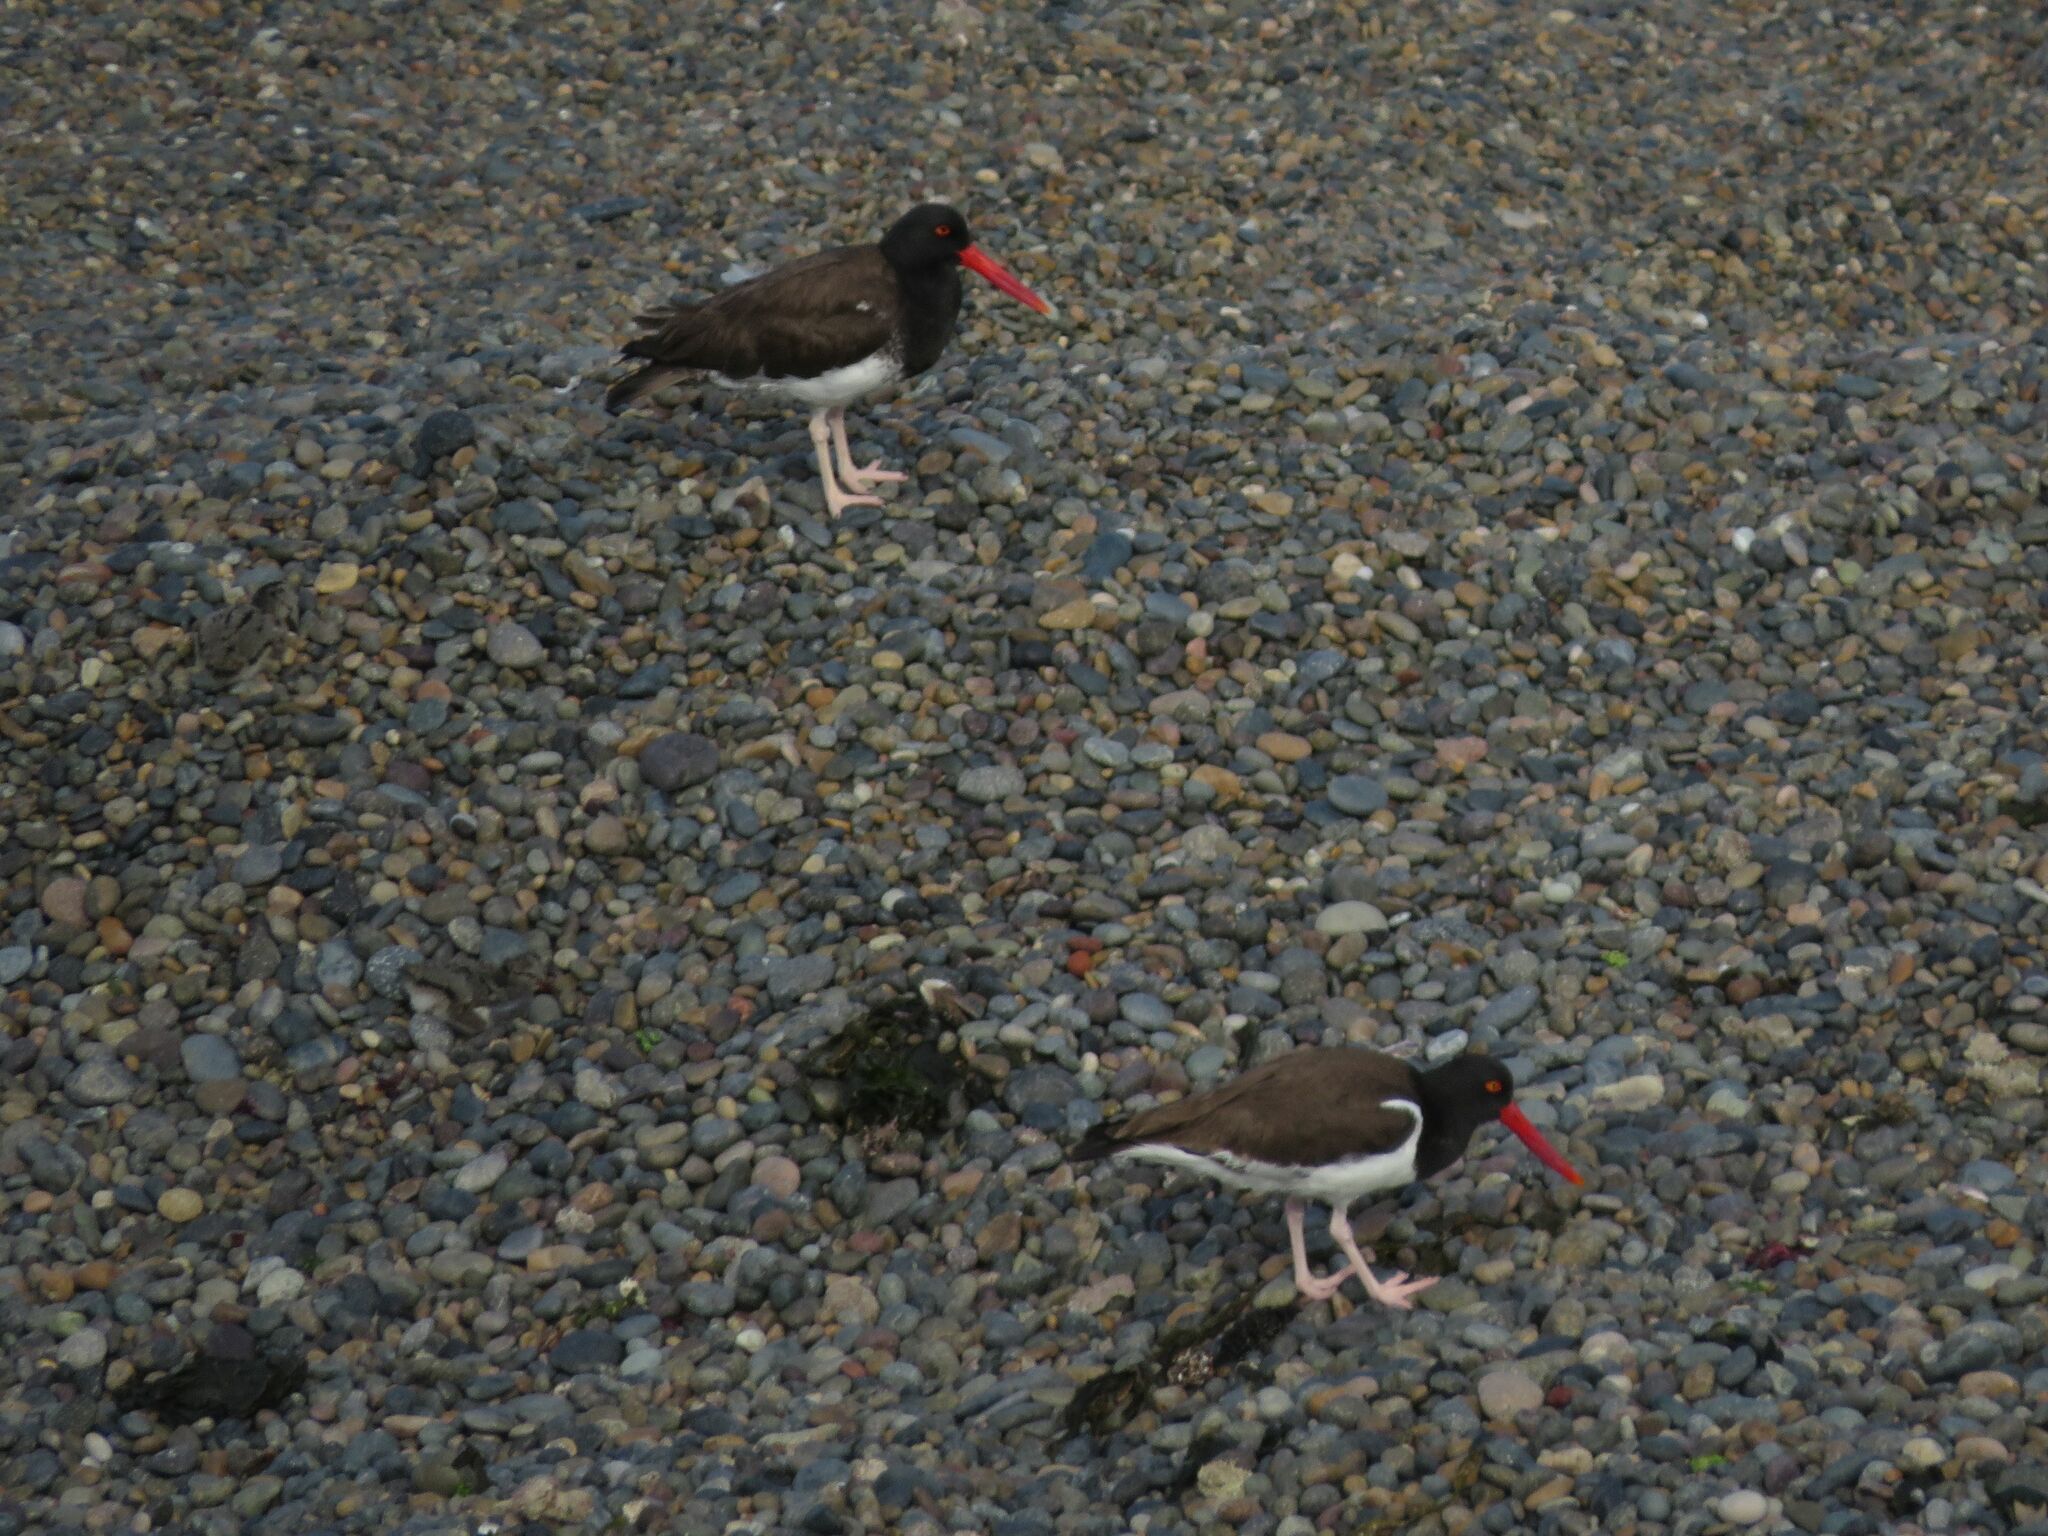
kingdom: Animalia
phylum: Chordata
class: Aves
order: Charadriiformes
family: Haematopodidae
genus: Haematopus
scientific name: Haematopus palliatus
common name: American oystercatcher
